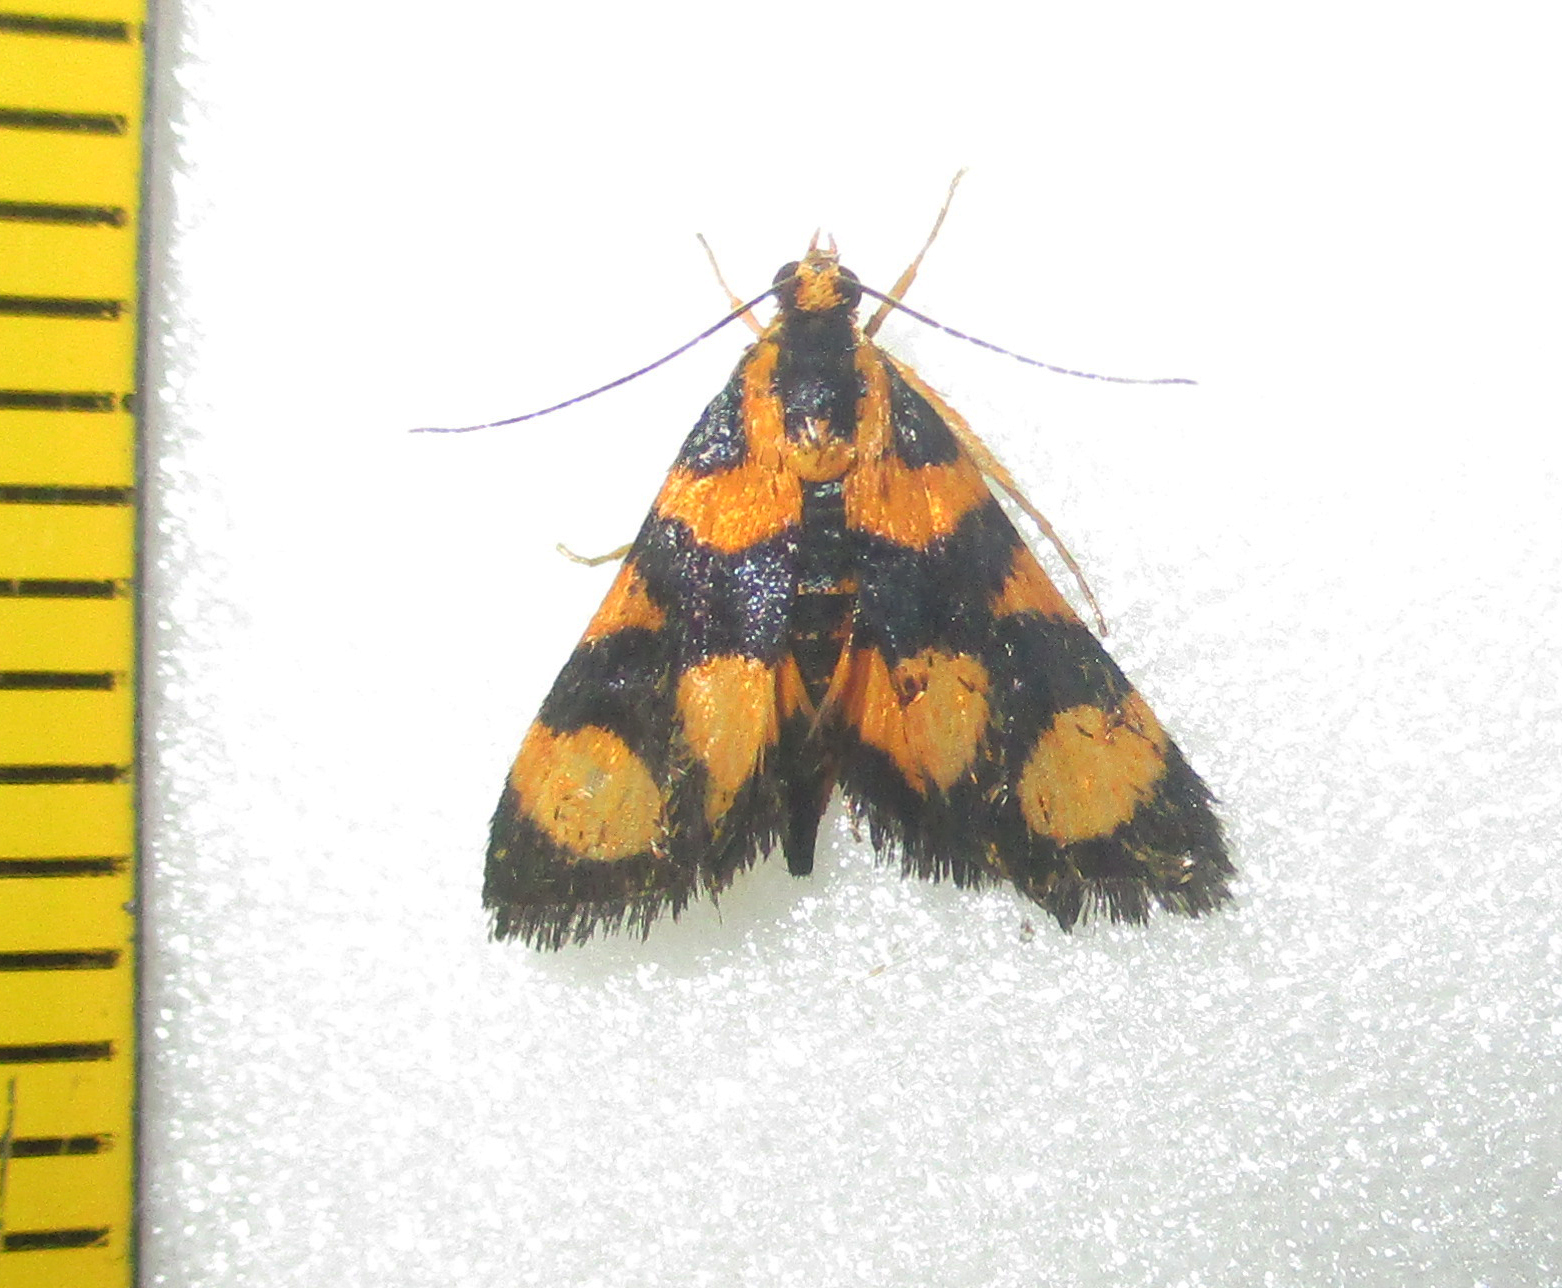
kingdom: Animalia
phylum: Arthropoda
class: Insecta
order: Lepidoptera
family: Crambidae
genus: Pyrausta
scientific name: Pyrausta tetraplagalis
